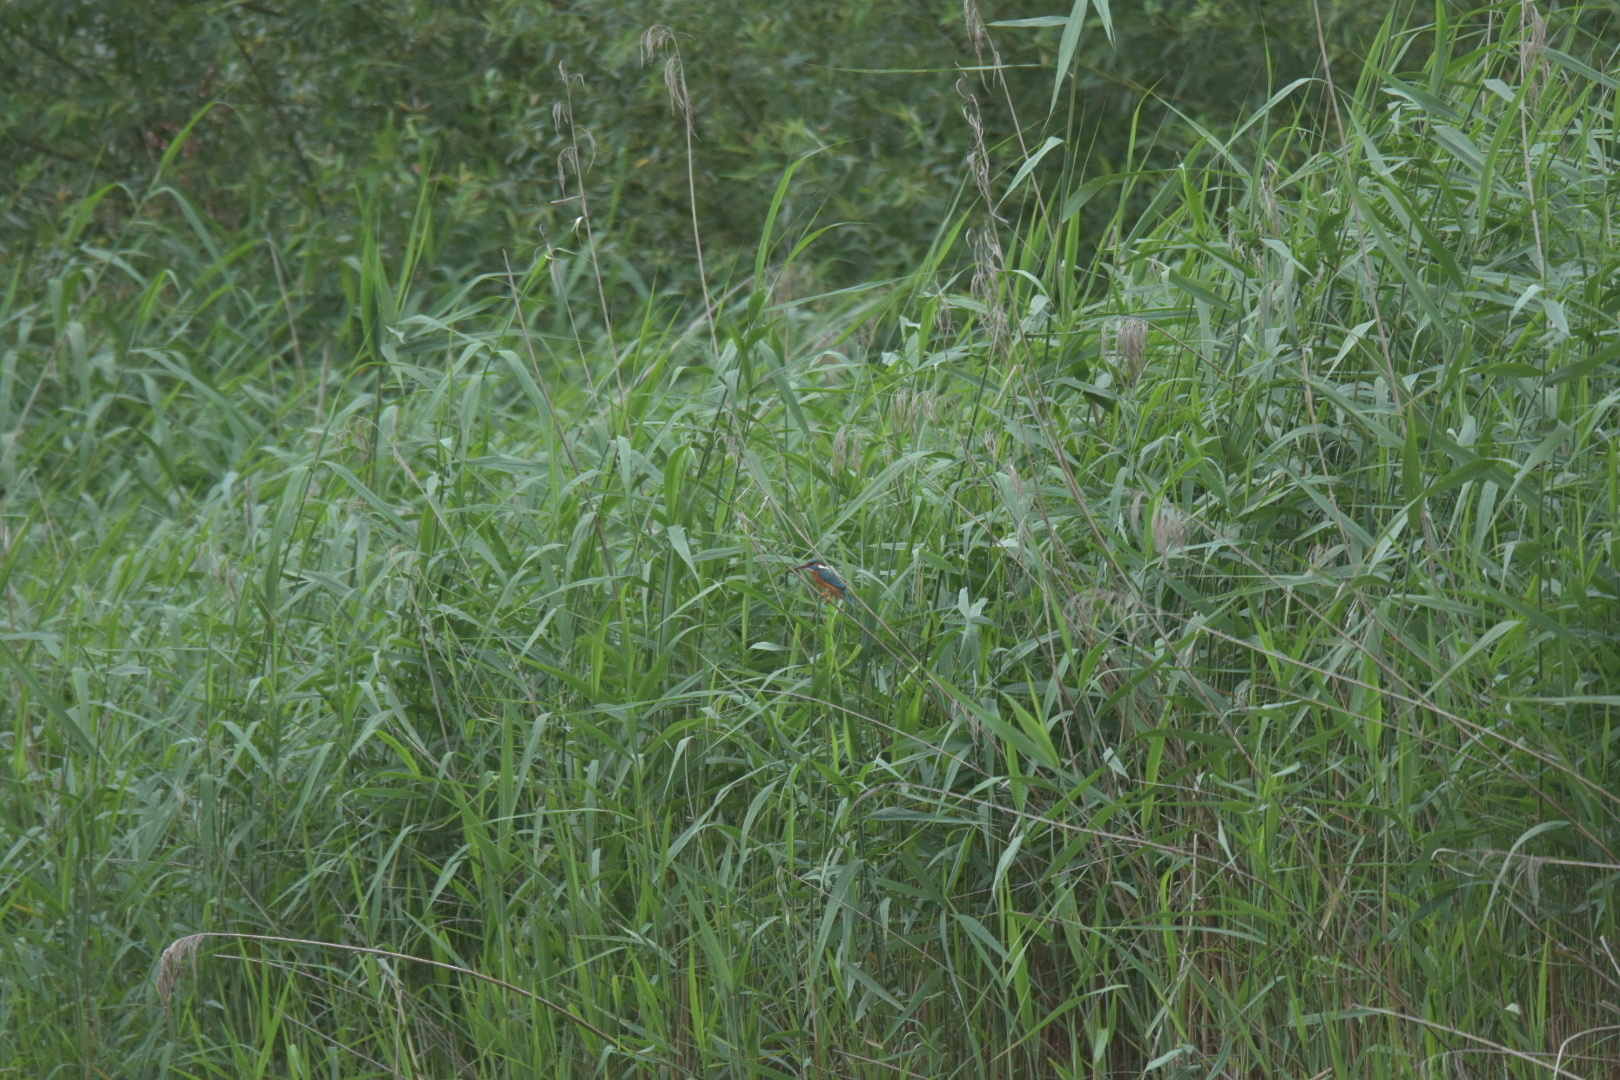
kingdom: Animalia
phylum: Chordata
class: Aves
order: Coraciiformes
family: Alcedinidae
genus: Alcedo
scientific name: Alcedo atthis
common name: Common kingfisher
